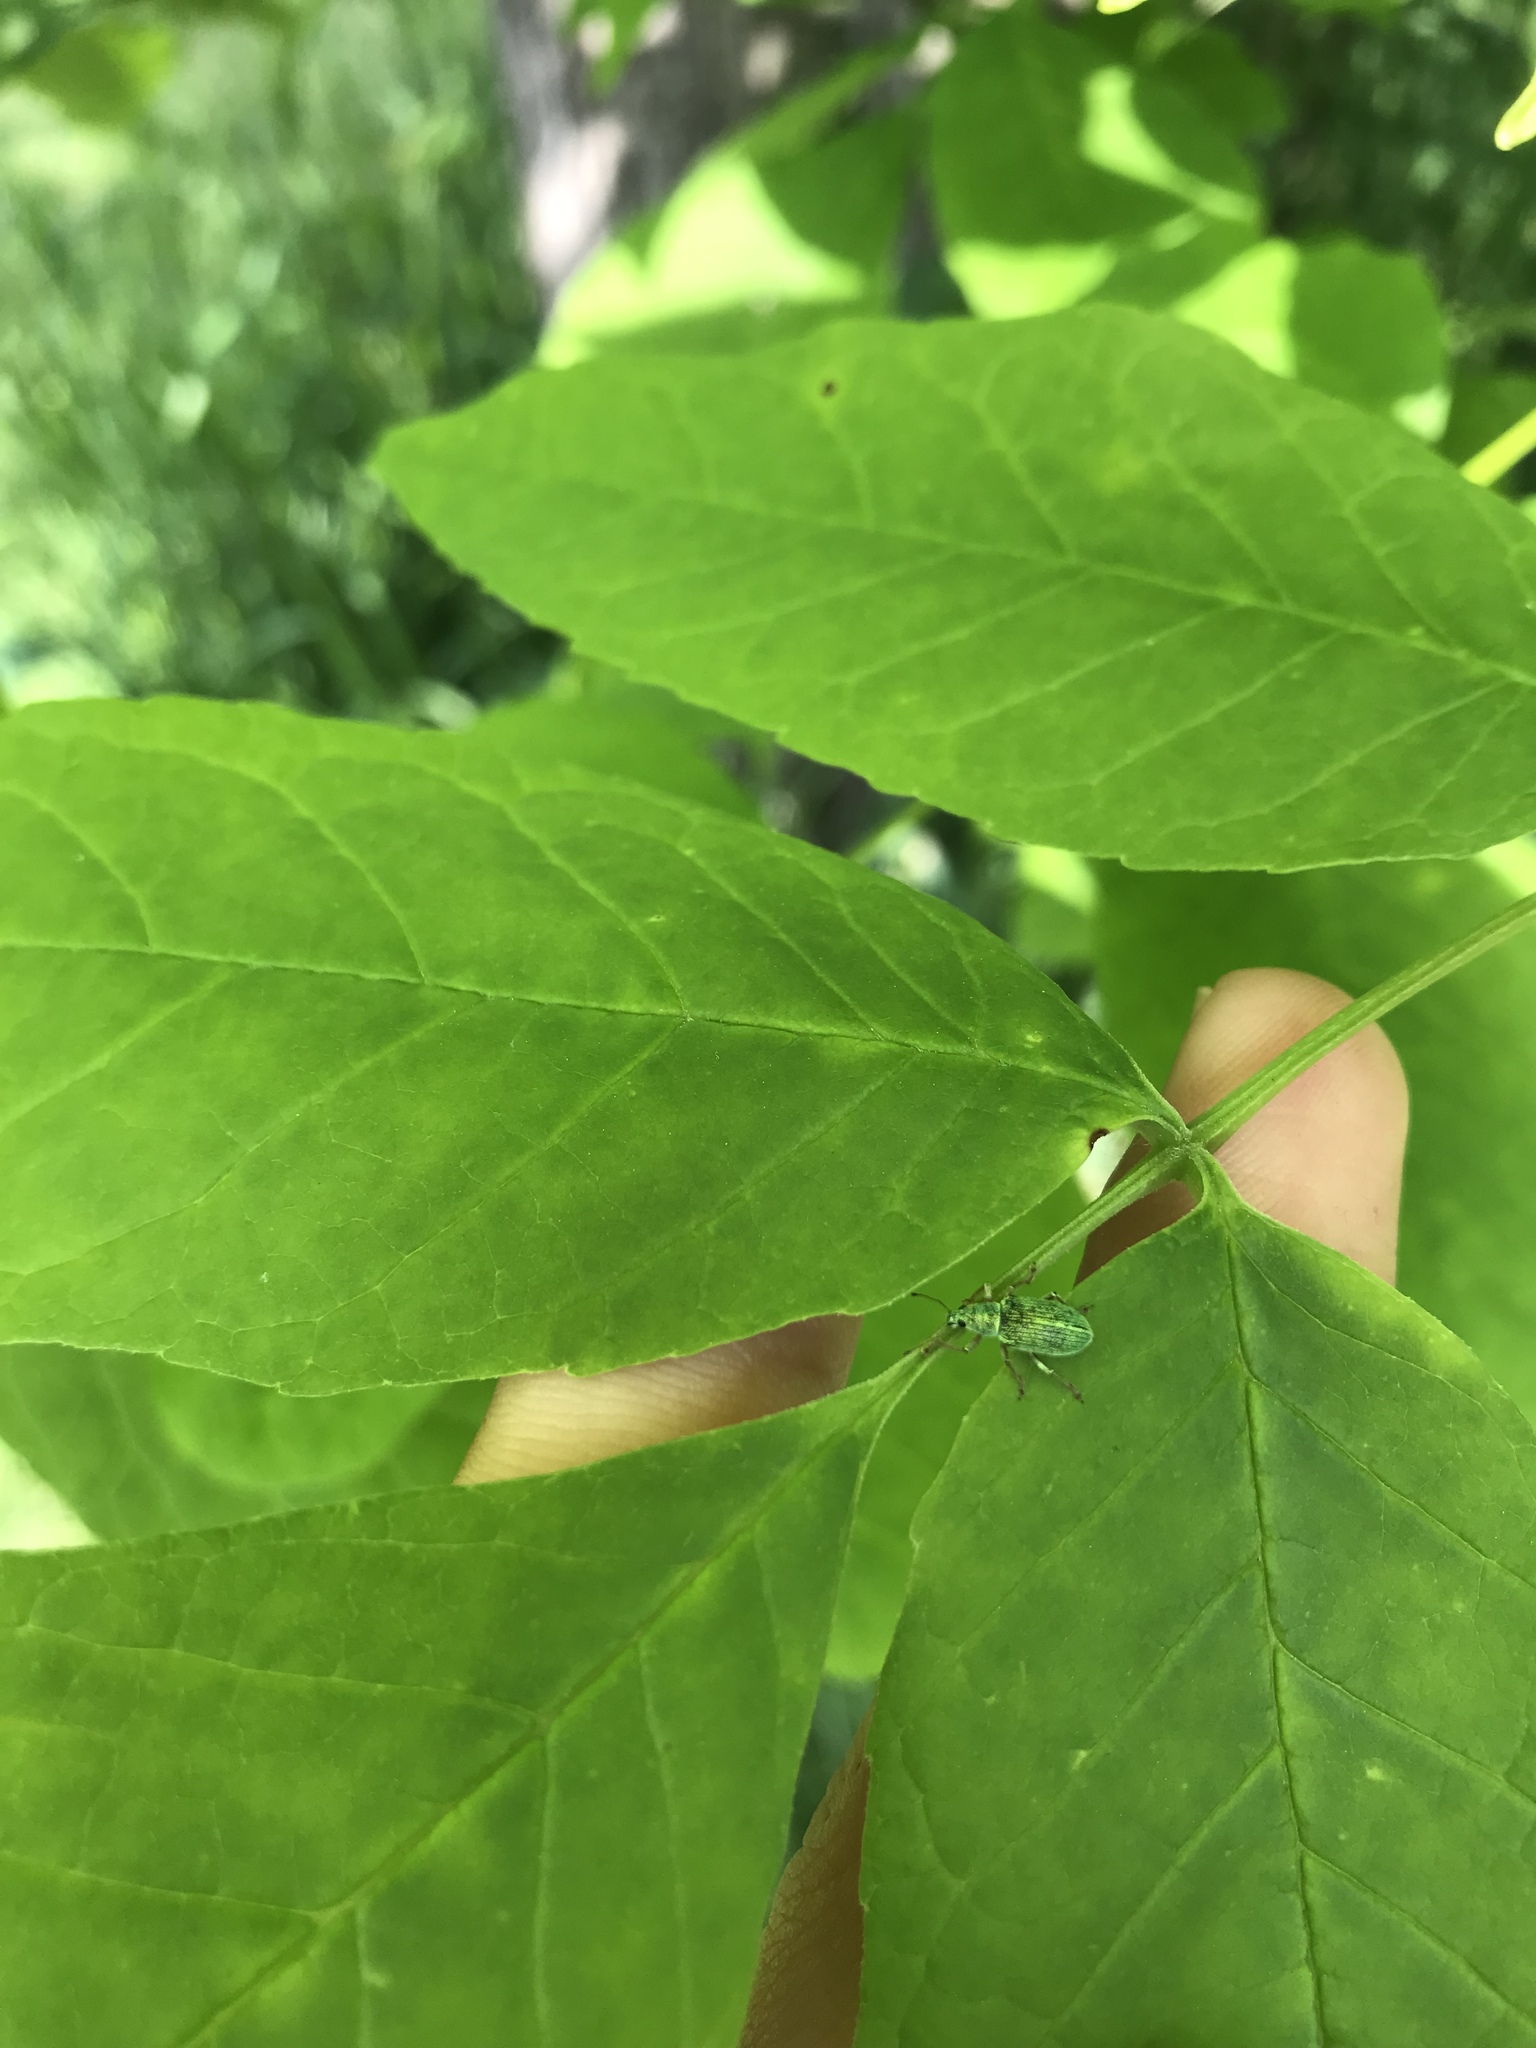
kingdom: Animalia
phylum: Arthropoda
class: Insecta
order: Coleoptera
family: Curculionidae
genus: Polydrusus
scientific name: Polydrusus formosus
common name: Weevil
